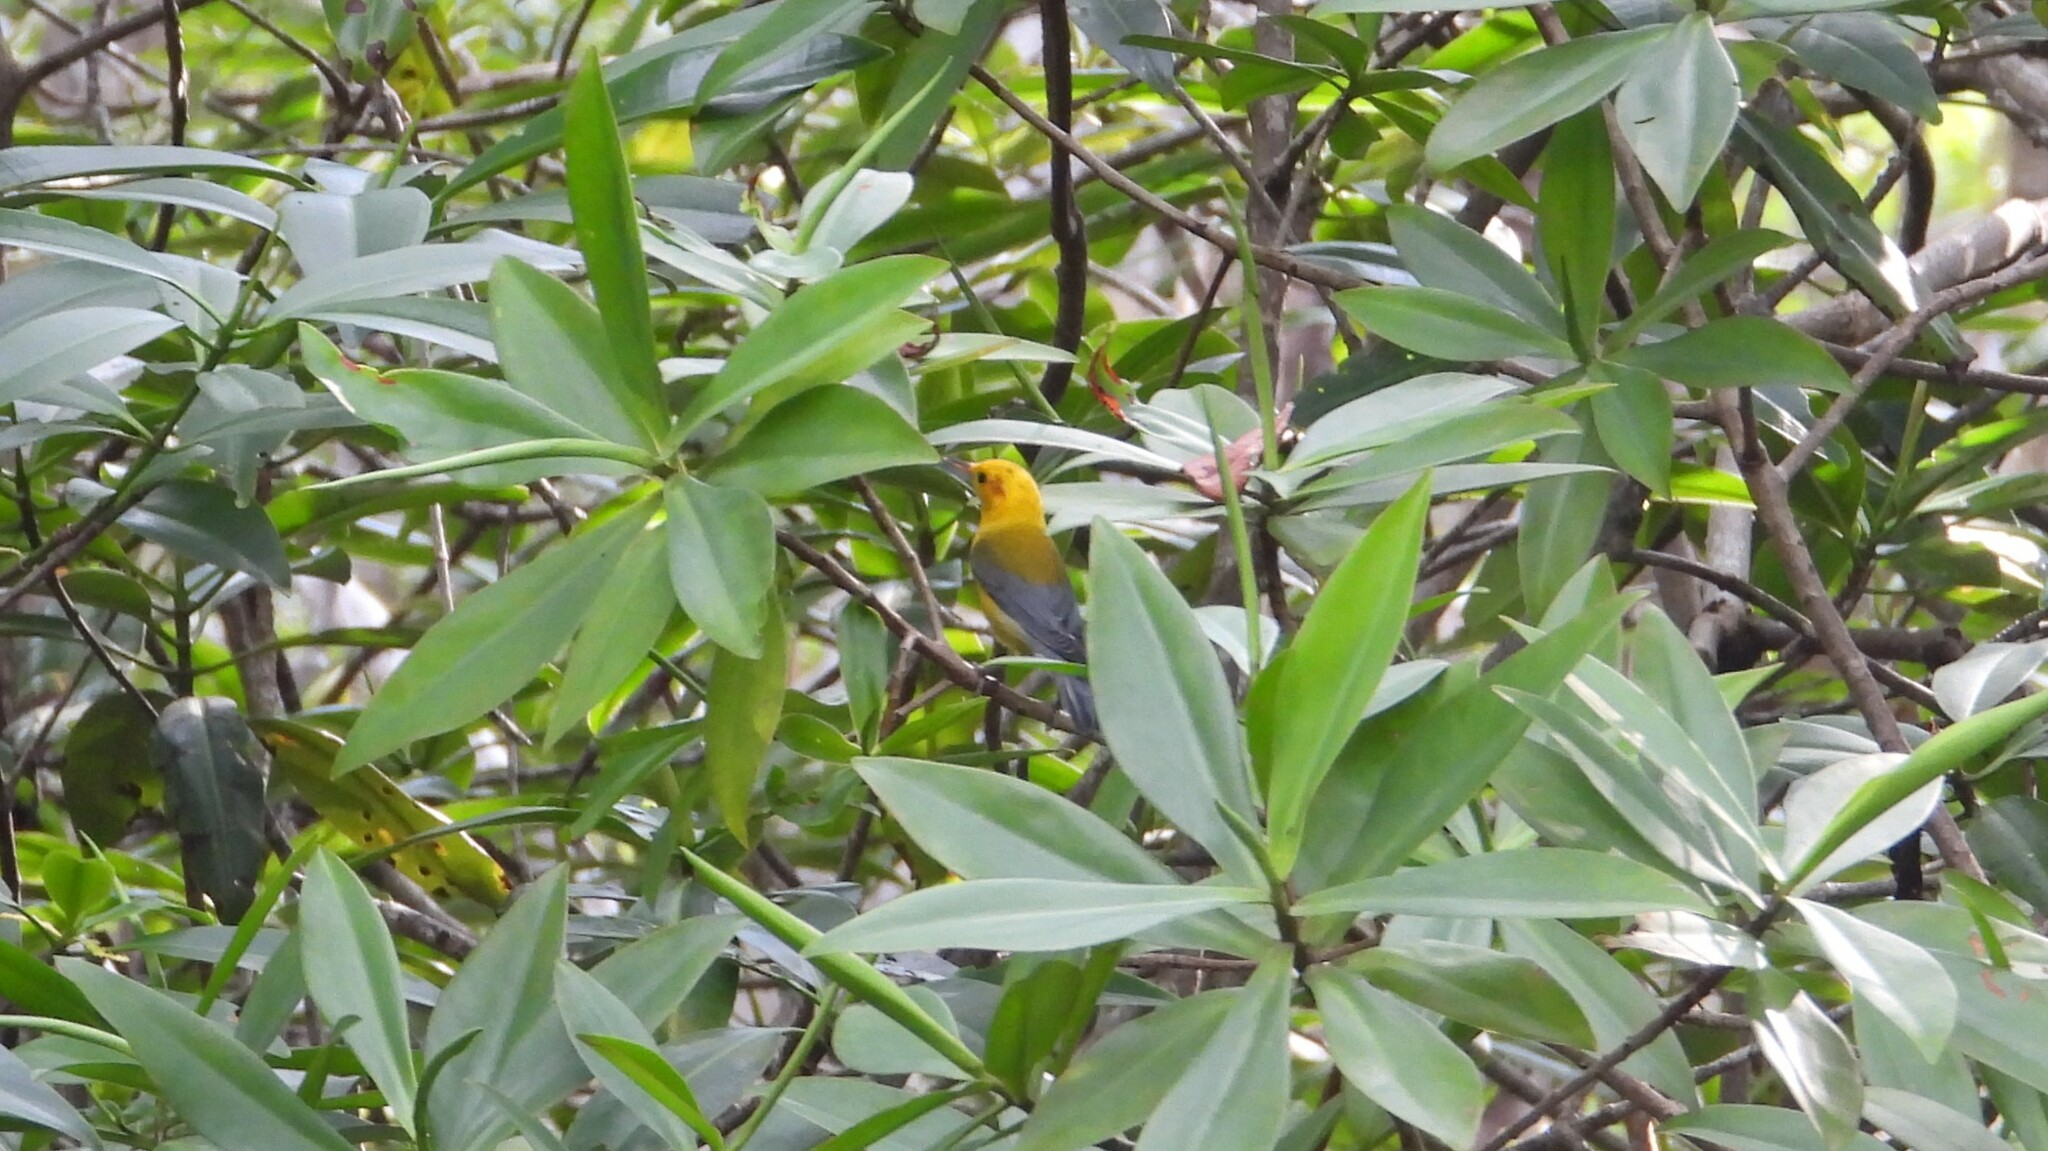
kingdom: Animalia
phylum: Chordata
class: Aves
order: Passeriformes
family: Parulidae
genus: Protonotaria
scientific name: Protonotaria citrea
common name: Prothonotary warbler
